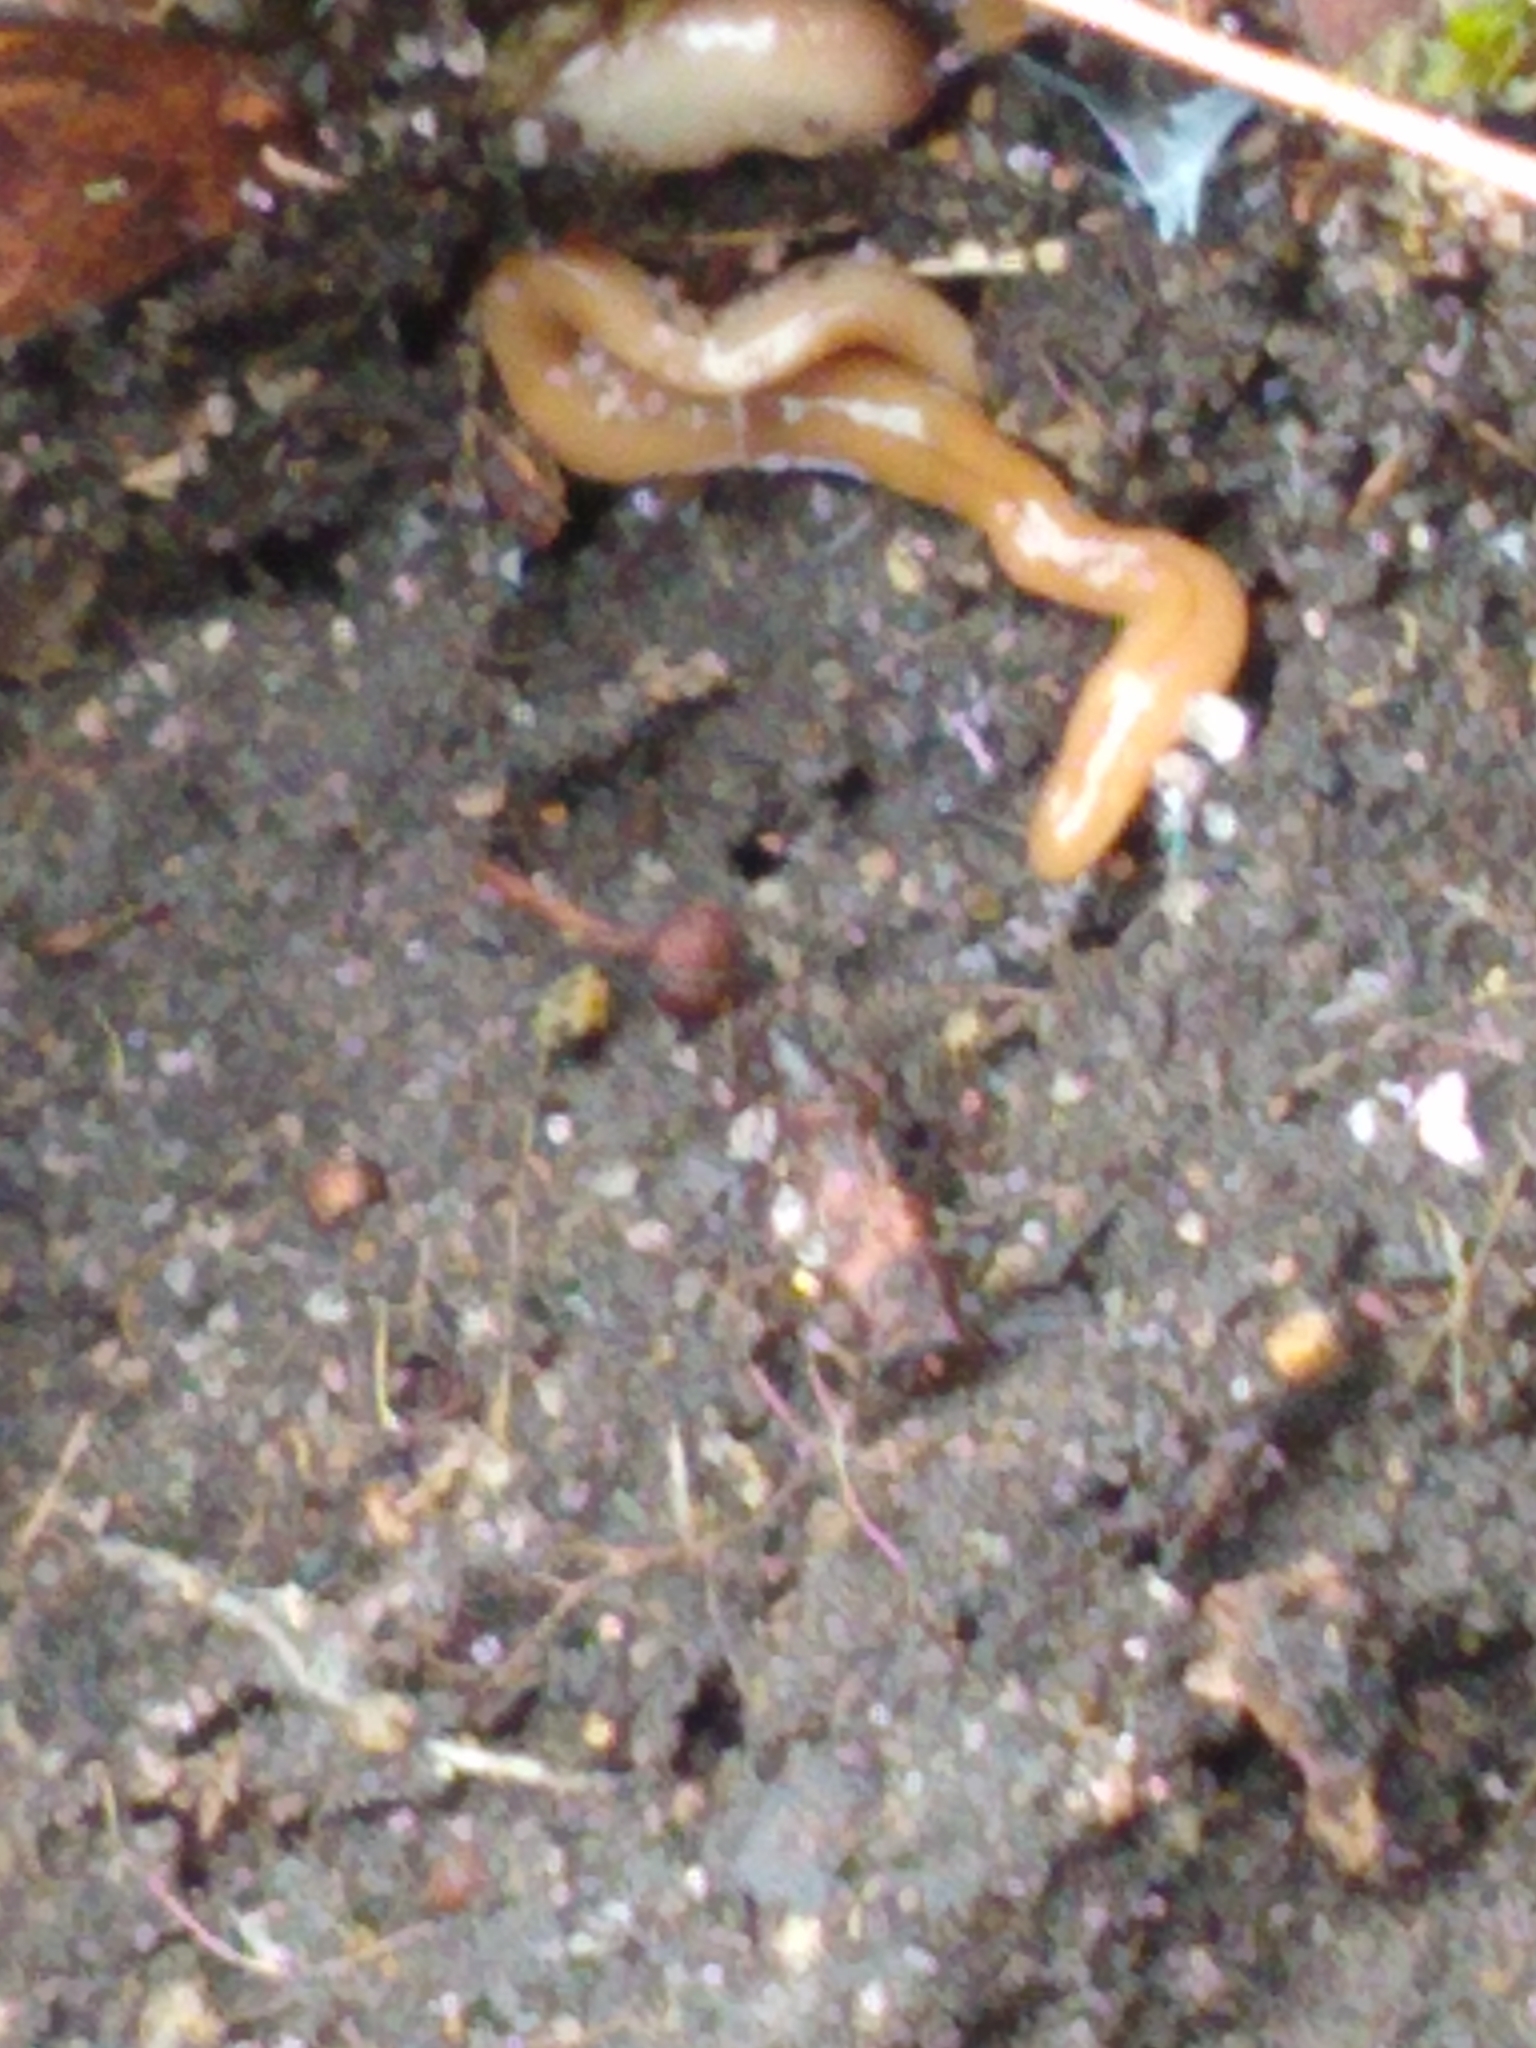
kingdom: Animalia
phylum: Platyhelminthes
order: Tricladida
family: Geoplanidae
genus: Bipalium
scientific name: Bipalium adventitium
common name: Land planarian
